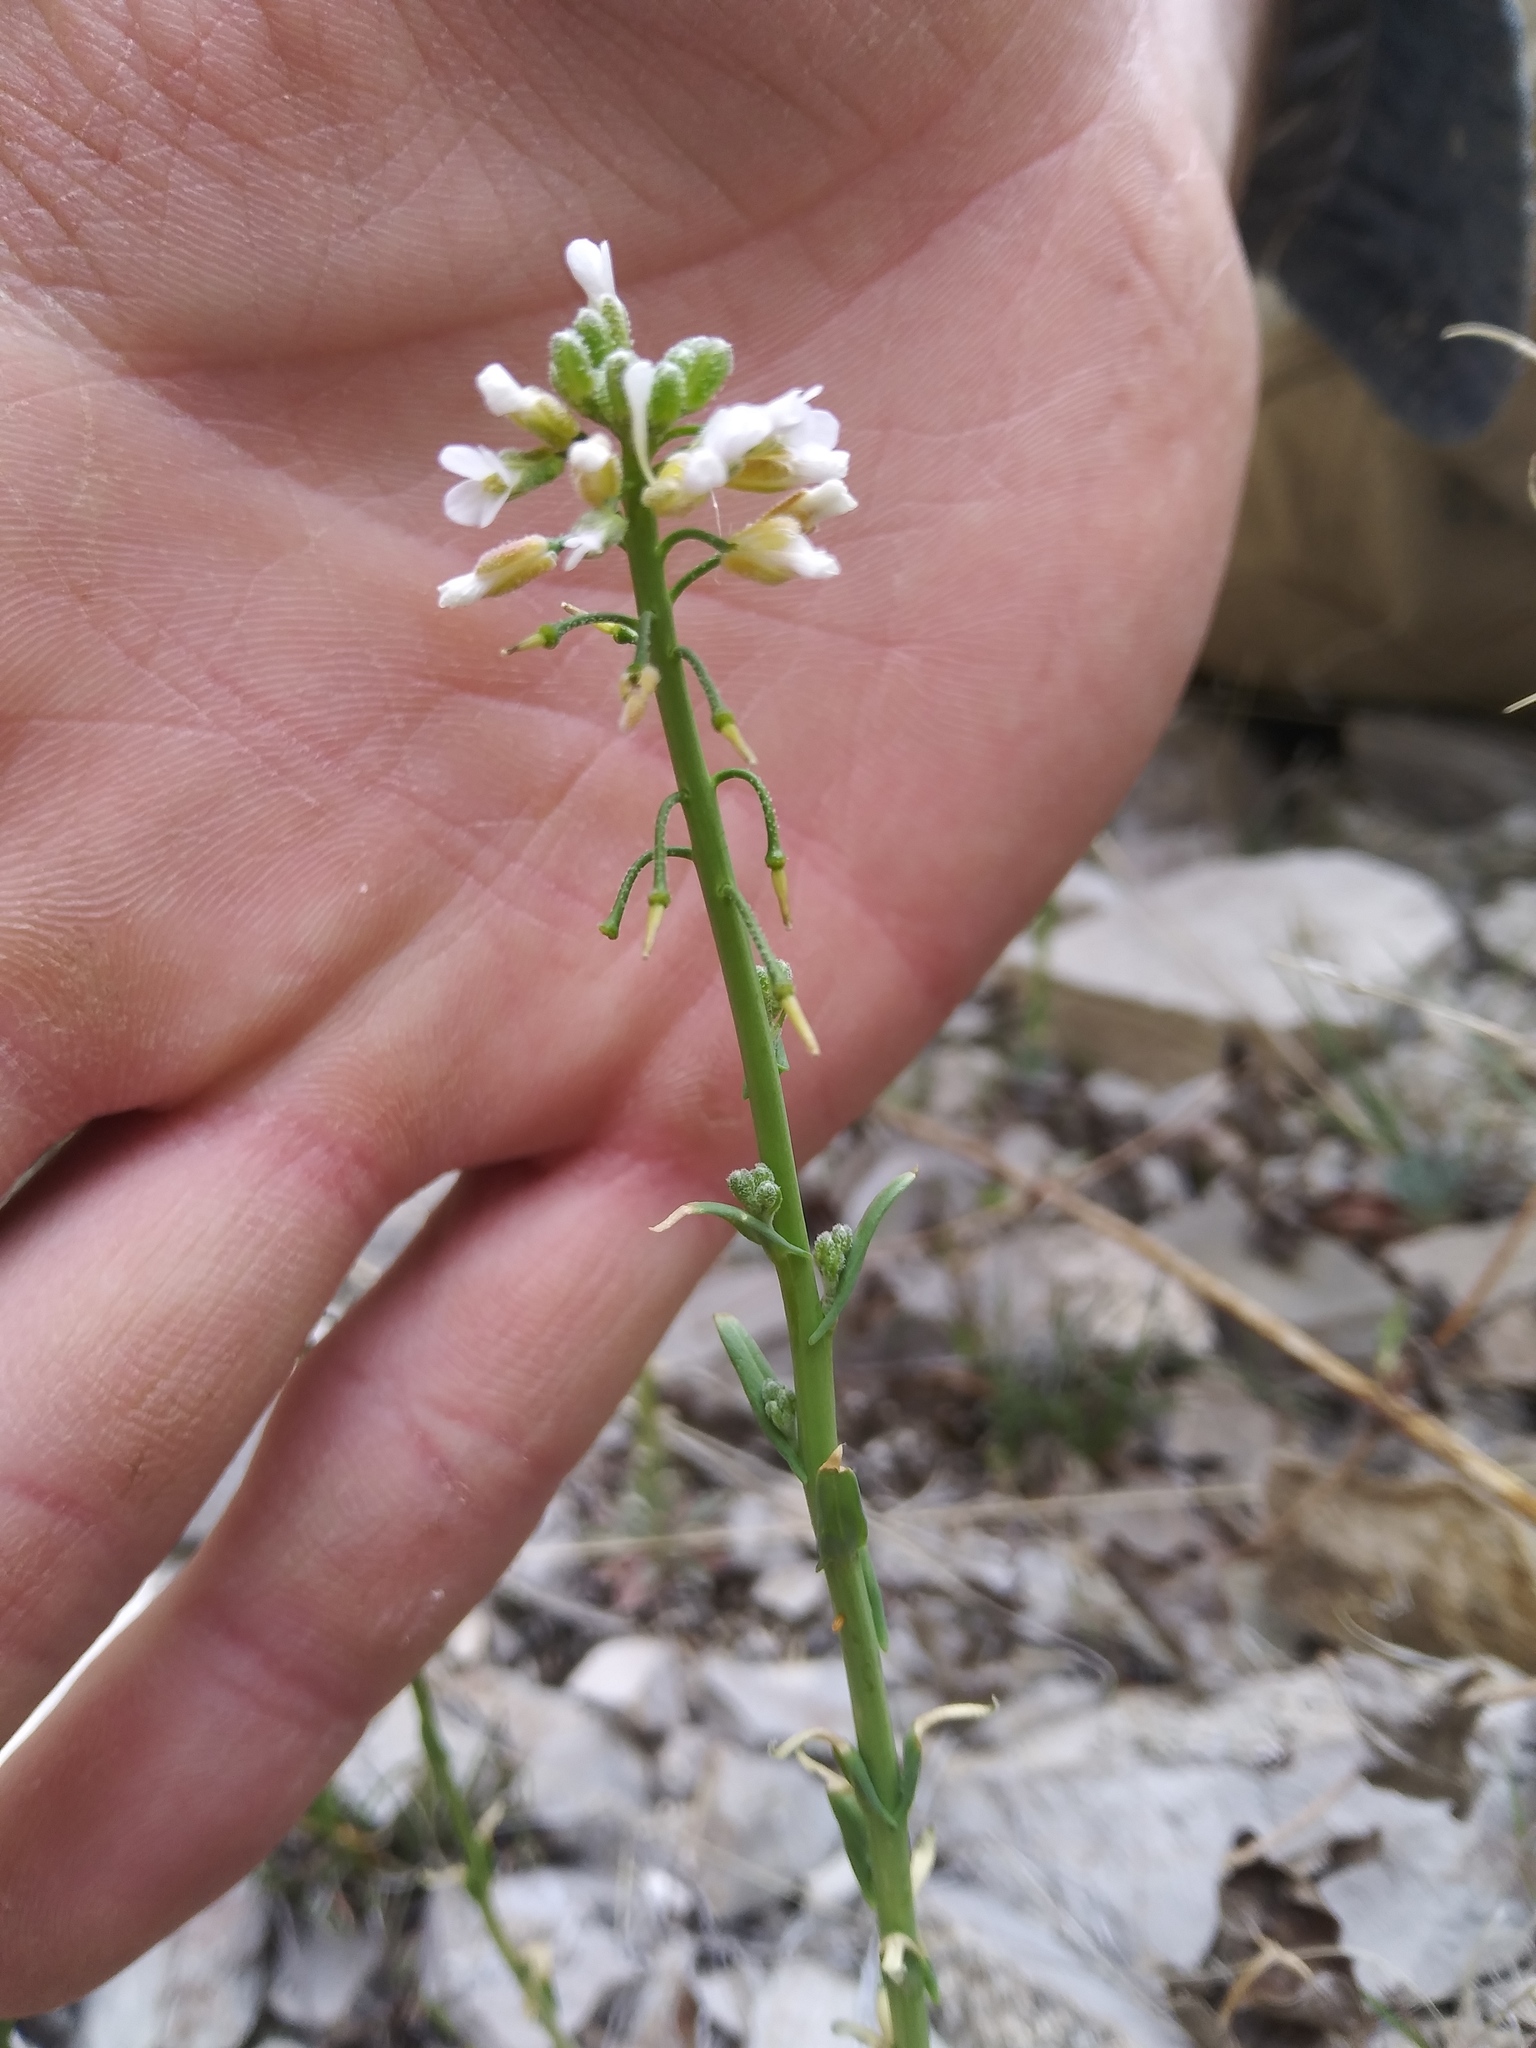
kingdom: Plantae
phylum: Tracheophyta
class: Magnoliopsida
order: Brassicales
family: Brassicaceae
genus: Boechera
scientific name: Boechera retrofracta
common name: Dangling suncress
